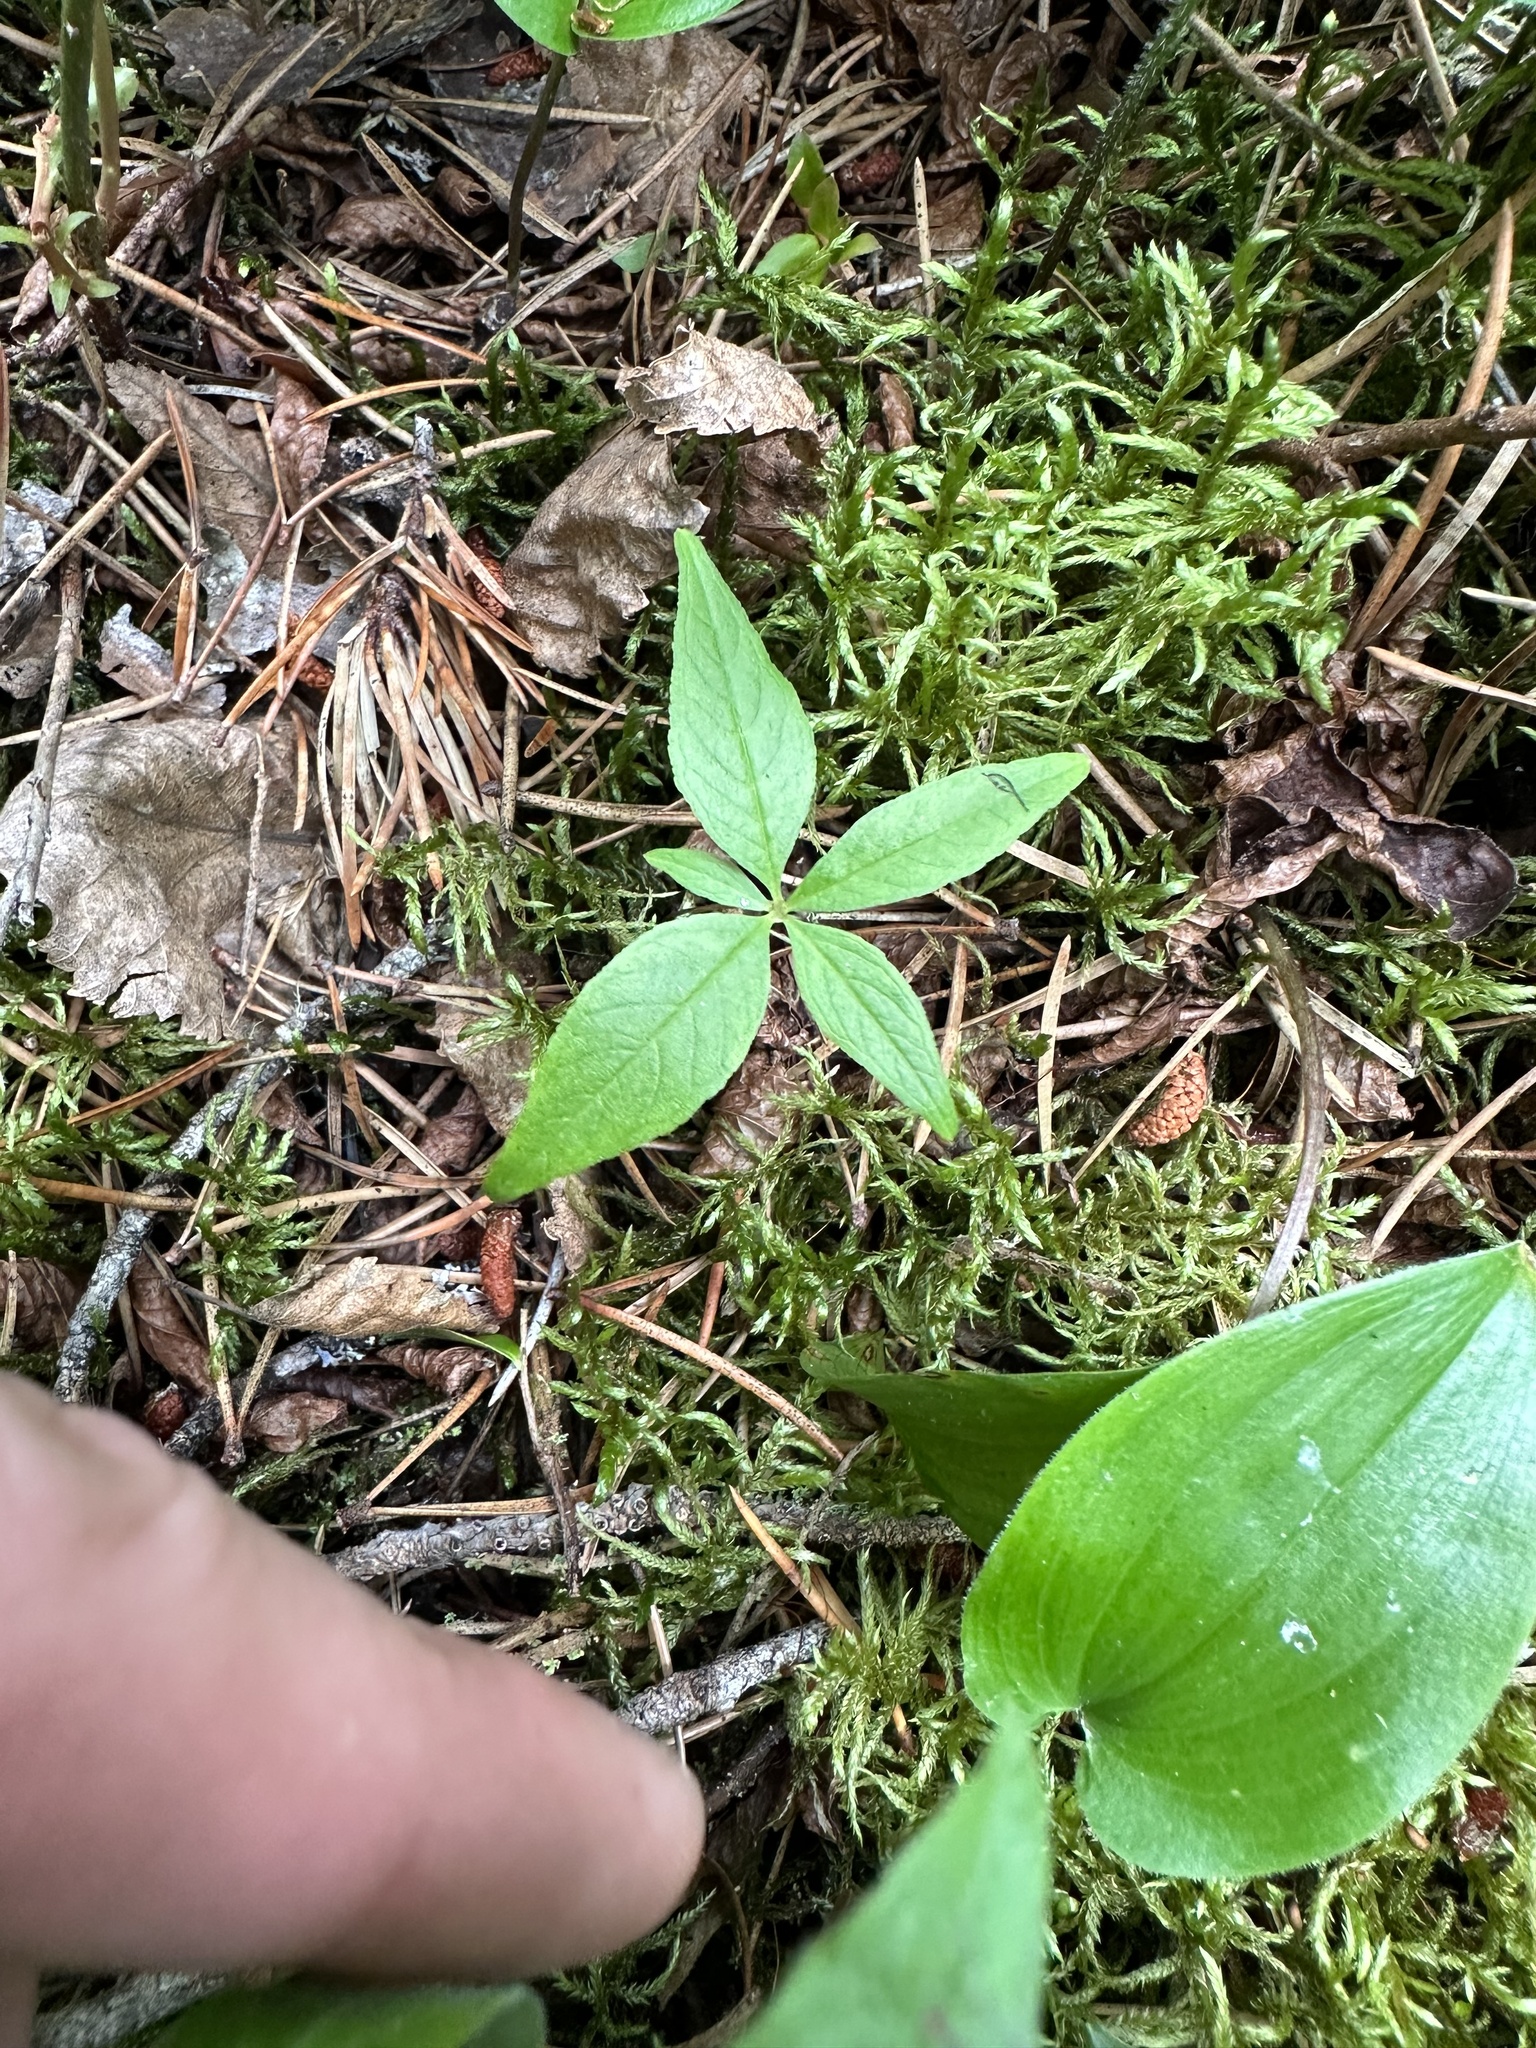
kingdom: Plantae
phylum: Tracheophyta
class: Magnoliopsida
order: Ericales
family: Primulaceae
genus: Lysimachia
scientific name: Lysimachia borealis
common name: American starflower
